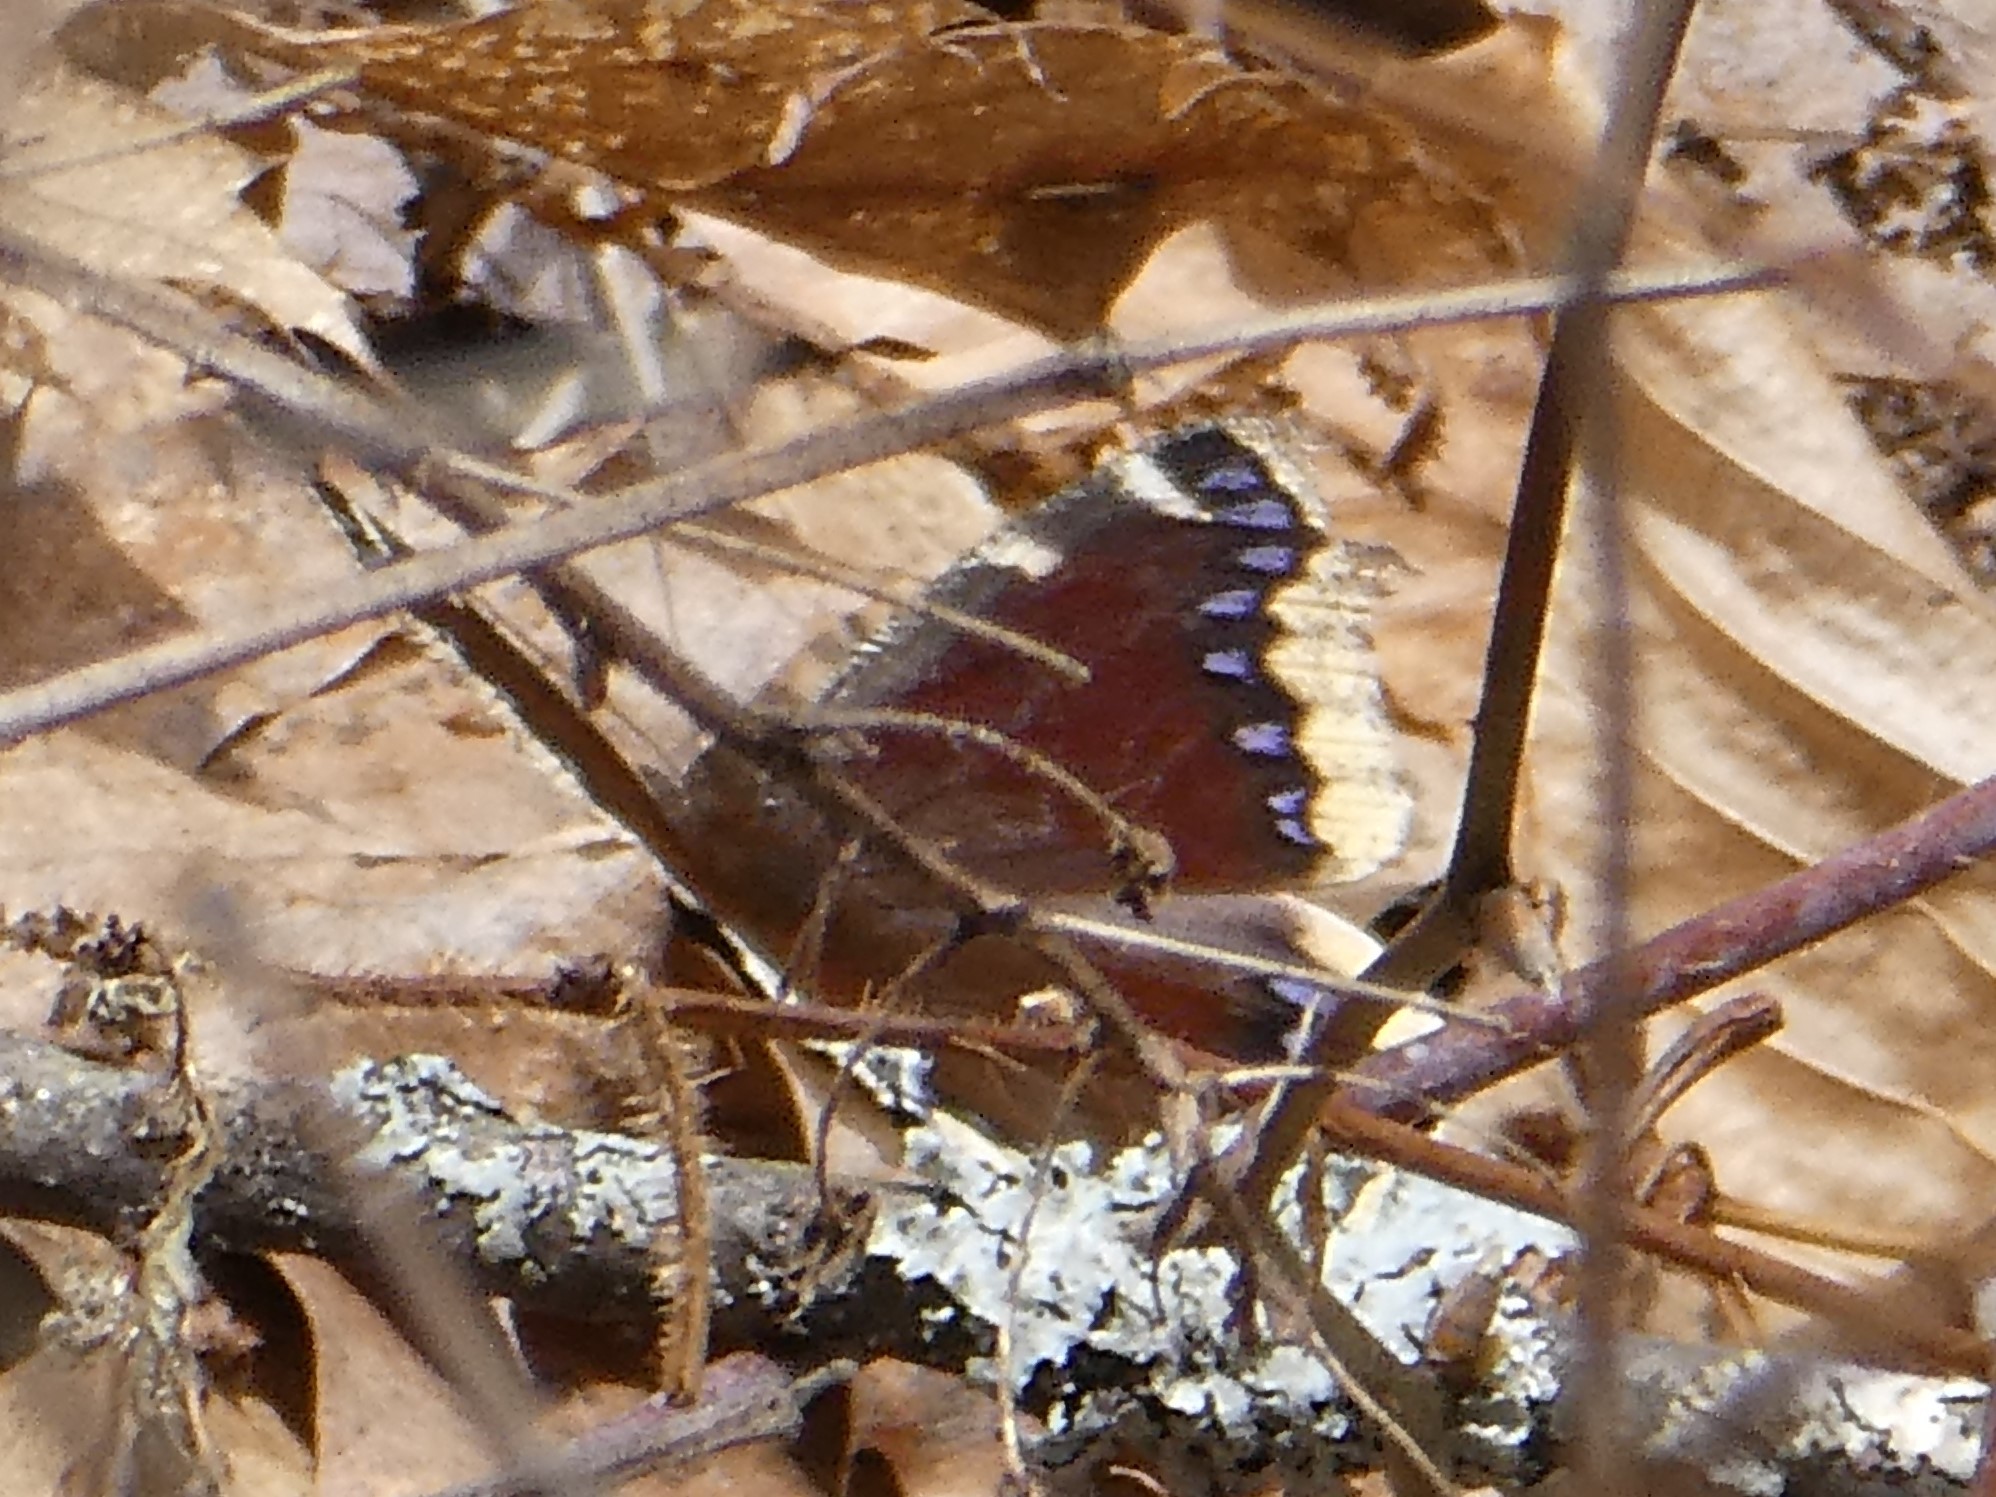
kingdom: Animalia
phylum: Arthropoda
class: Insecta
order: Lepidoptera
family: Nymphalidae
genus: Nymphalis
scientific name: Nymphalis antiopa
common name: Camberwell beauty
